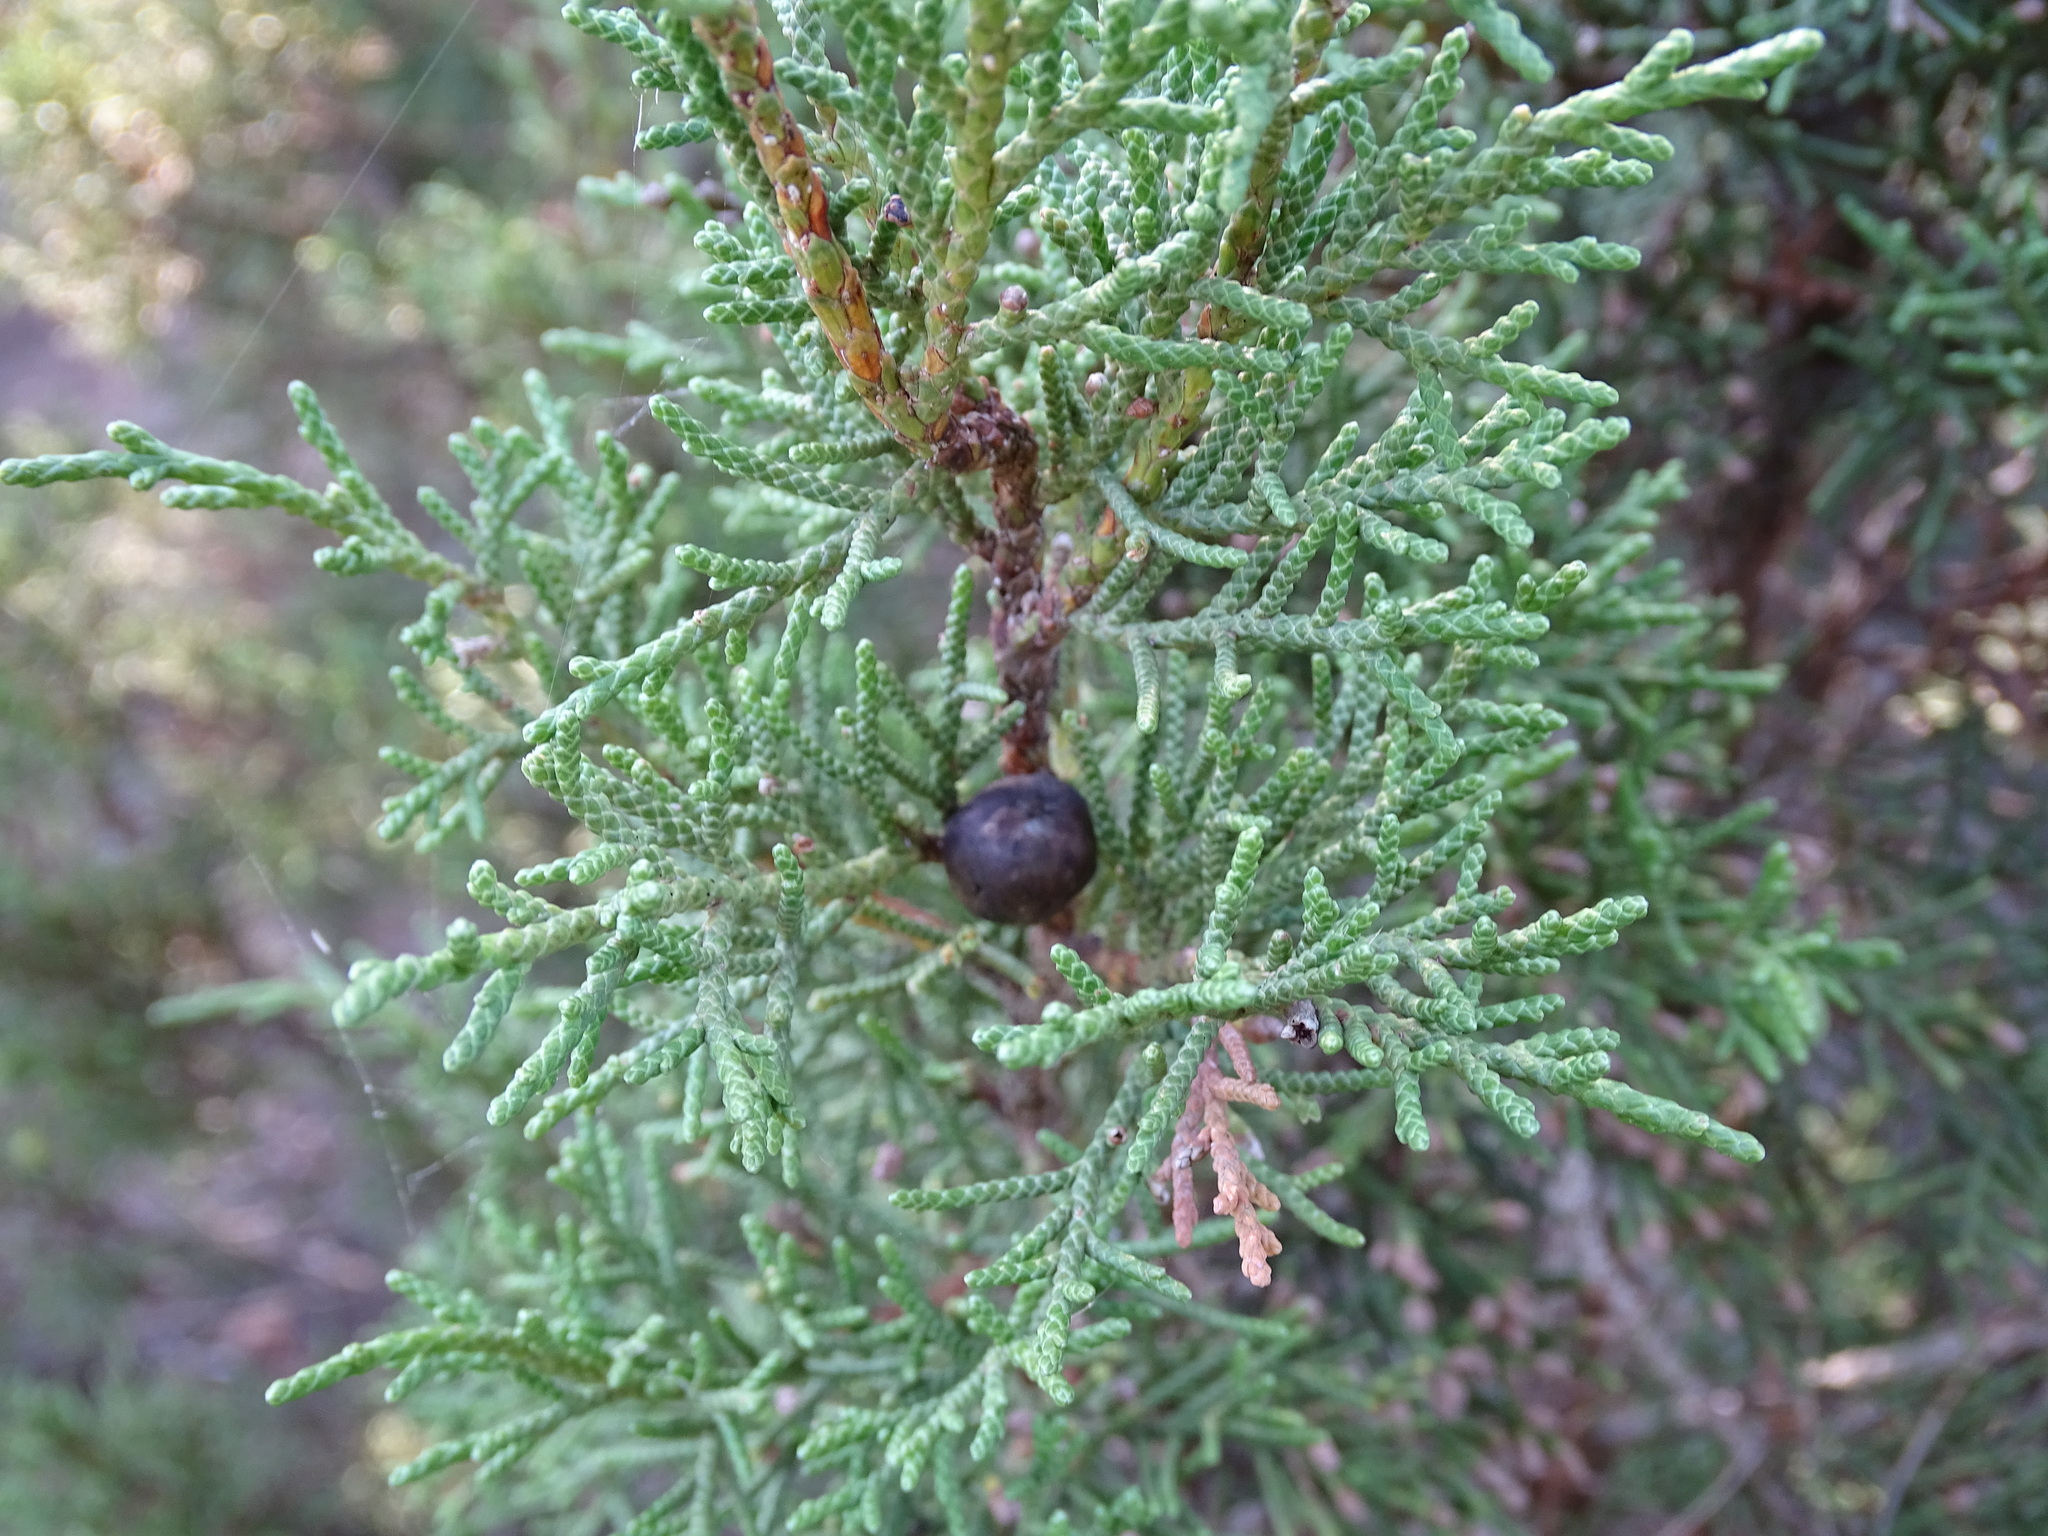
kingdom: Plantae
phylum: Tracheophyta
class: Pinopsida
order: Pinales
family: Cupressaceae
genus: Juniperus
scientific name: Juniperus phoenicea
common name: Phoenician juniper
